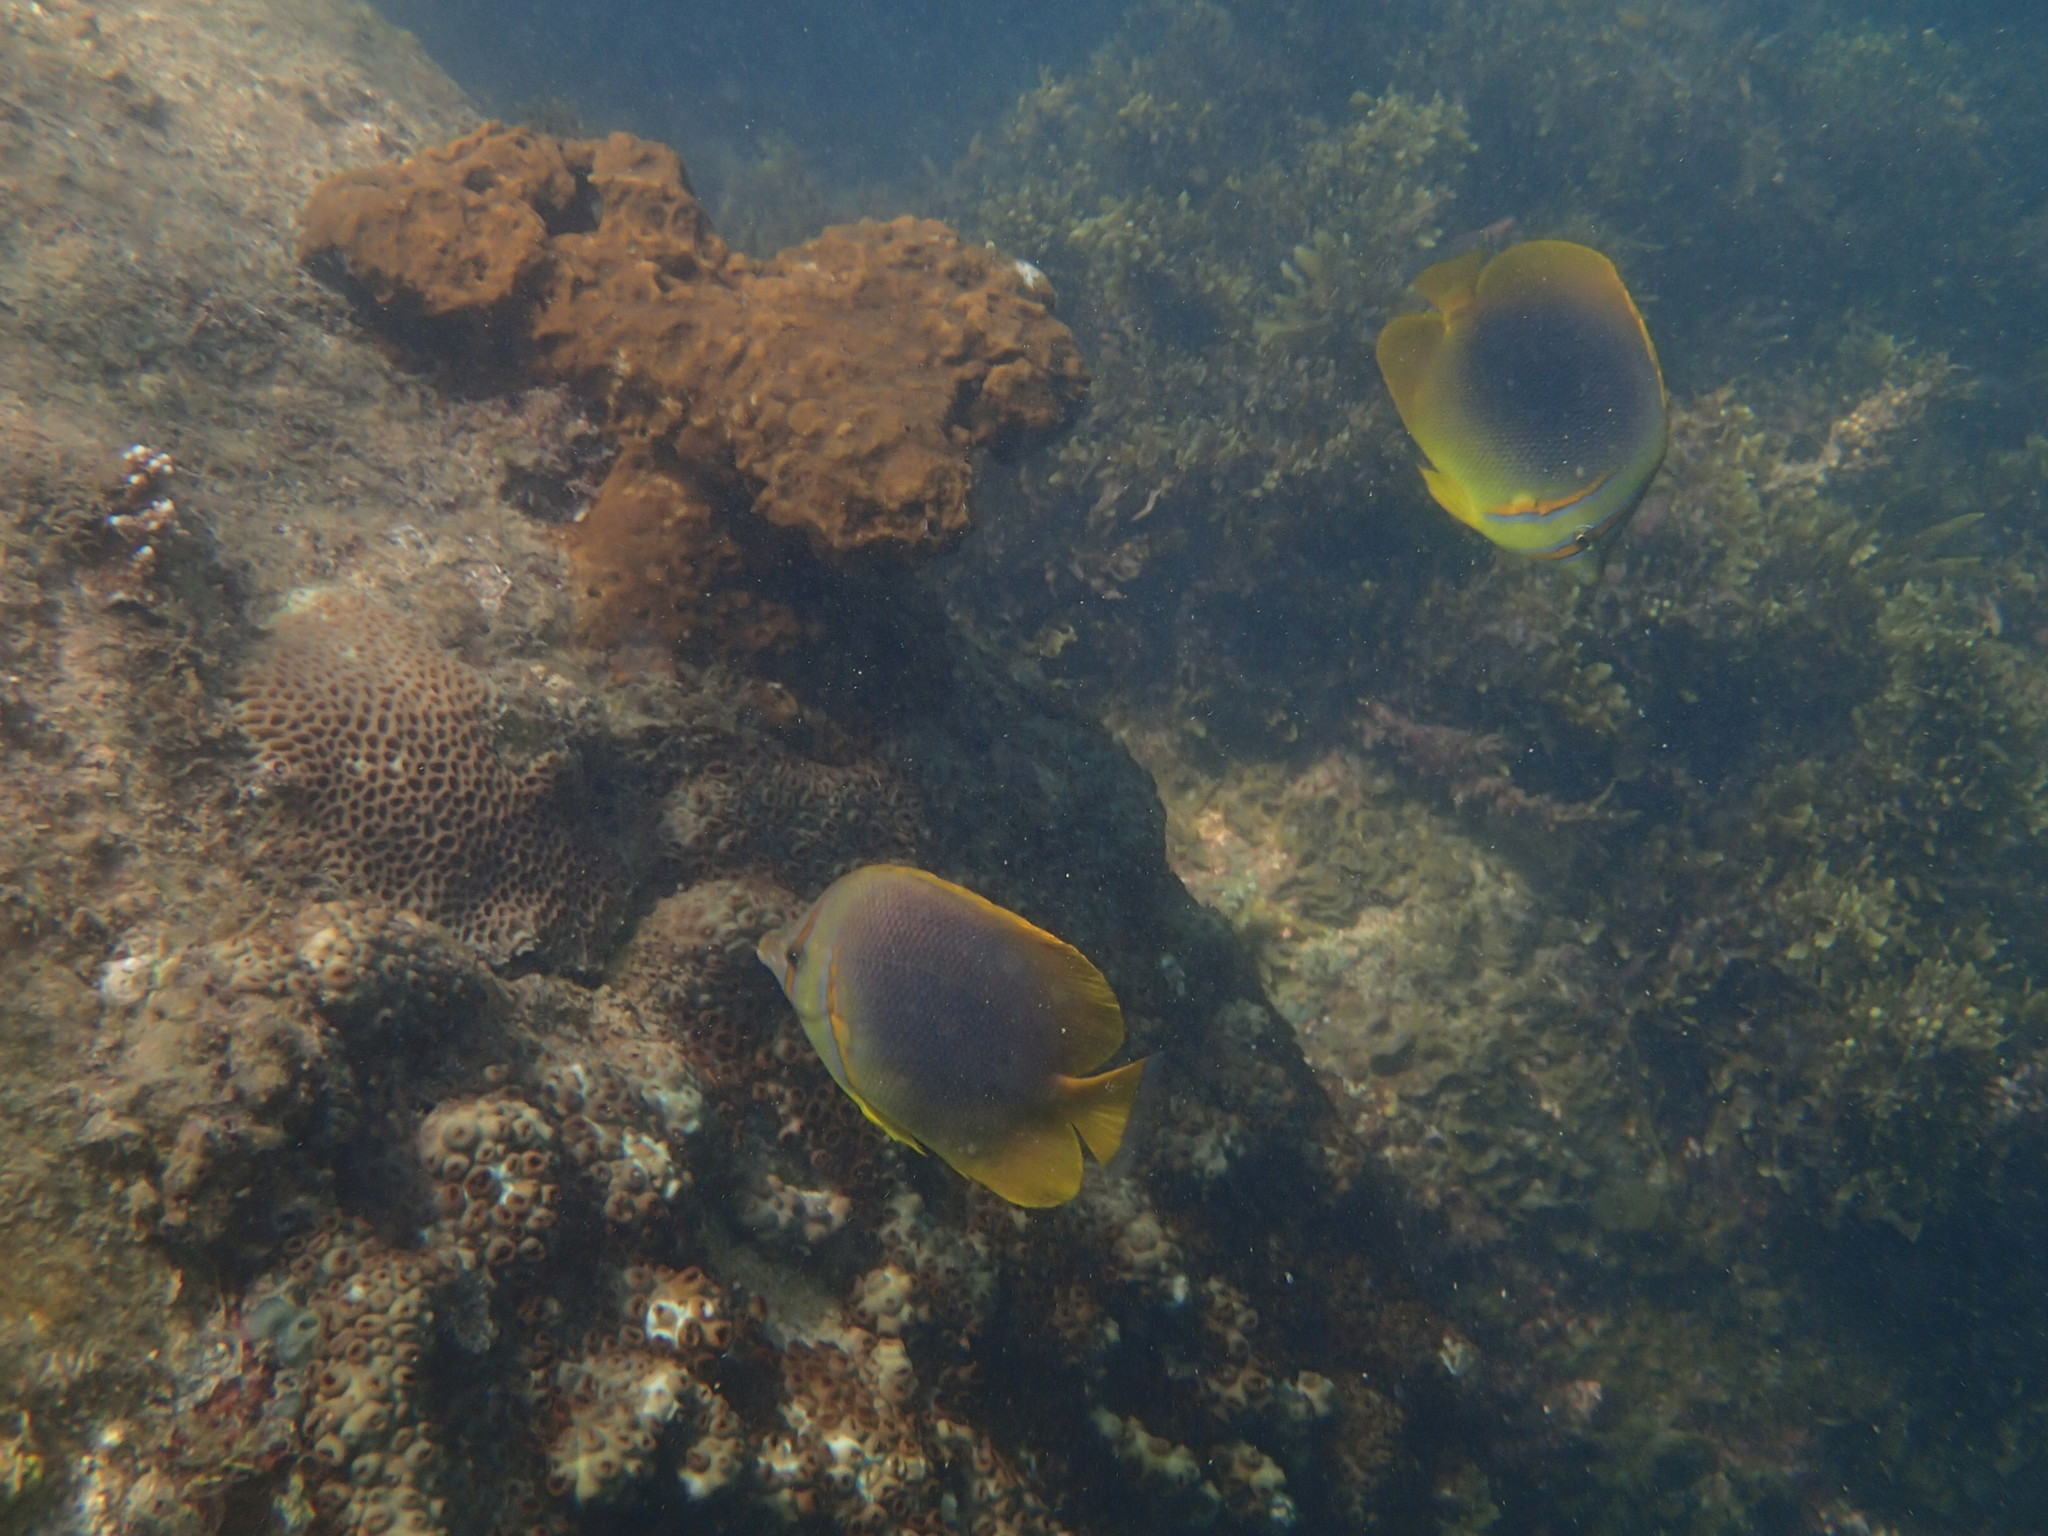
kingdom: Animalia
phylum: Chordata
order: Perciformes
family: Chaetodontidae
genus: Chaetodon
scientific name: Chaetodon aureofasciatus
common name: Golden butterflyfish
